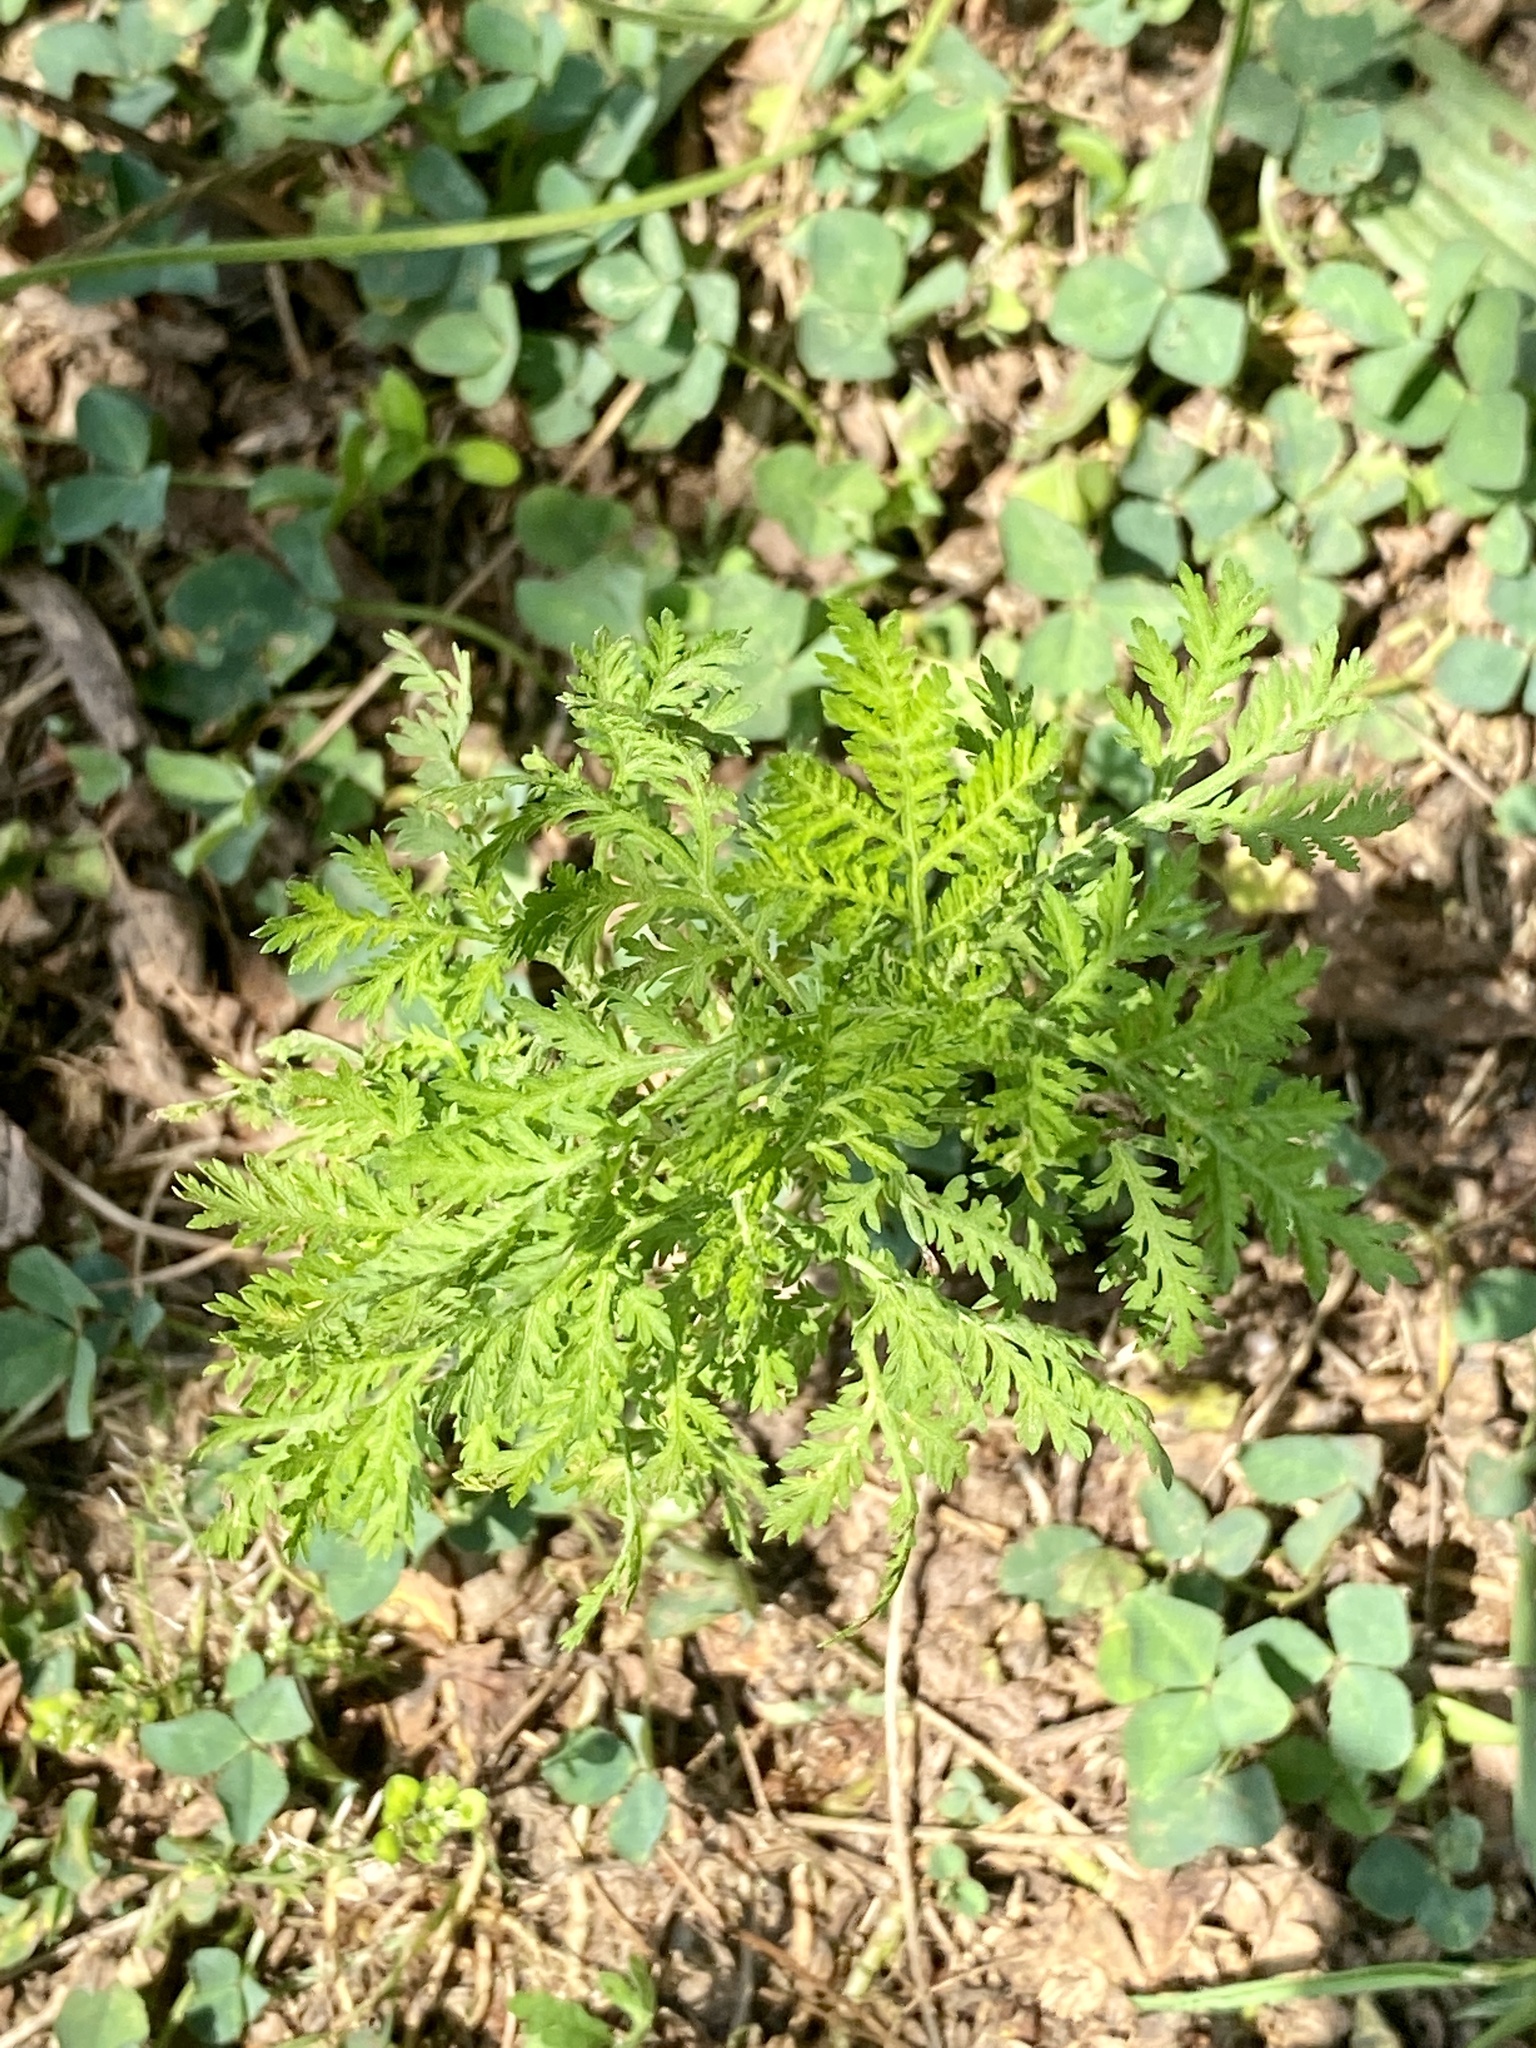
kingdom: Plantae
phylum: Tracheophyta
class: Magnoliopsida
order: Asterales
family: Asteraceae
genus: Artemisia
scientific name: Artemisia annua
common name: Sweet sagewort
